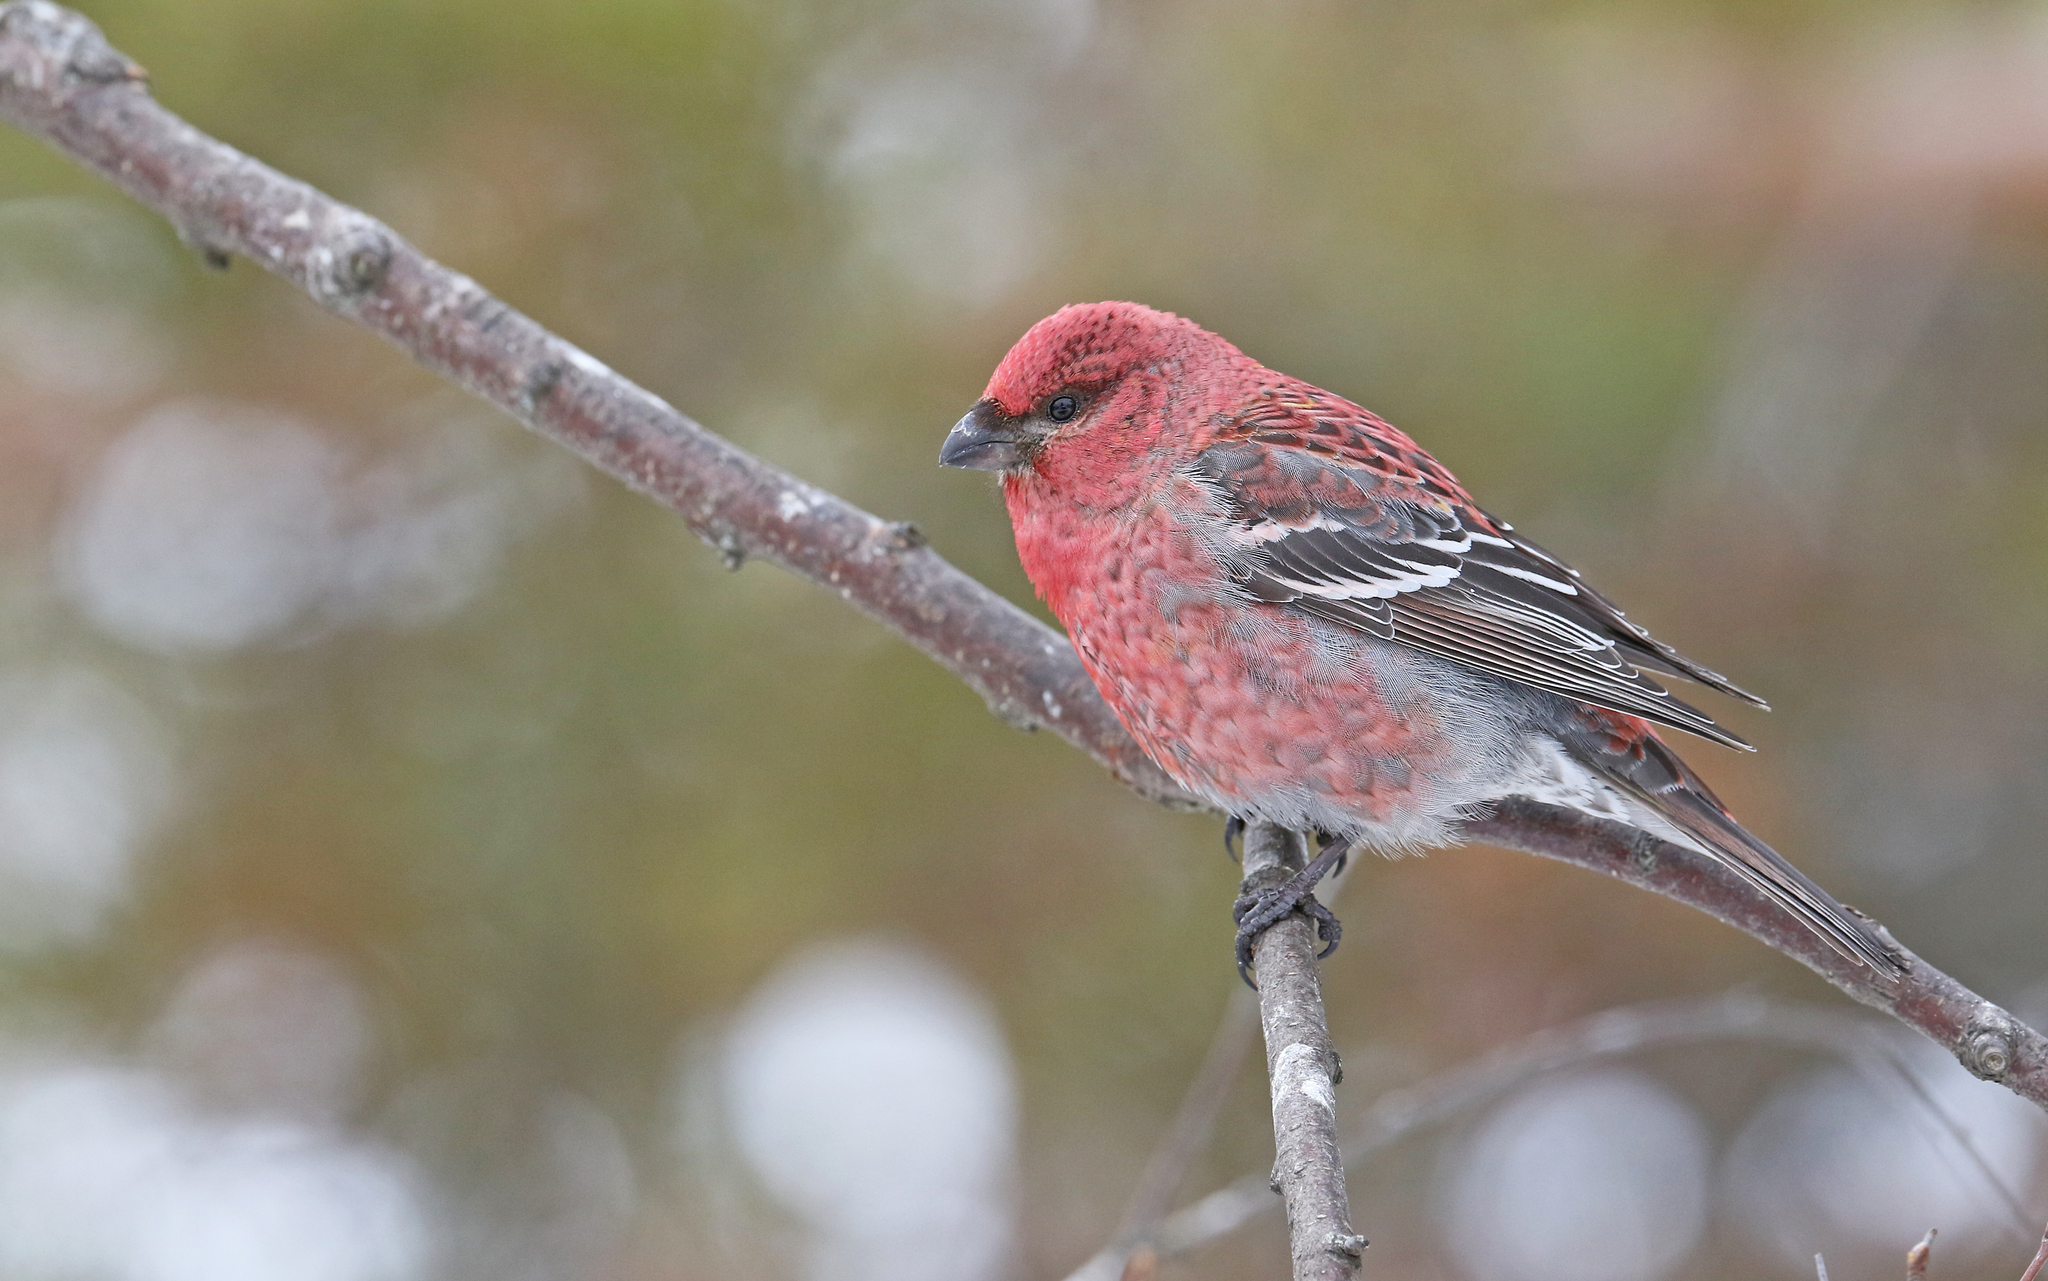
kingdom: Animalia
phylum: Chordata
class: Aves
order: Passeriformes
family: Fringillidae
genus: Pinicola
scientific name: Pinicola enucleator
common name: Pine grosbeak
